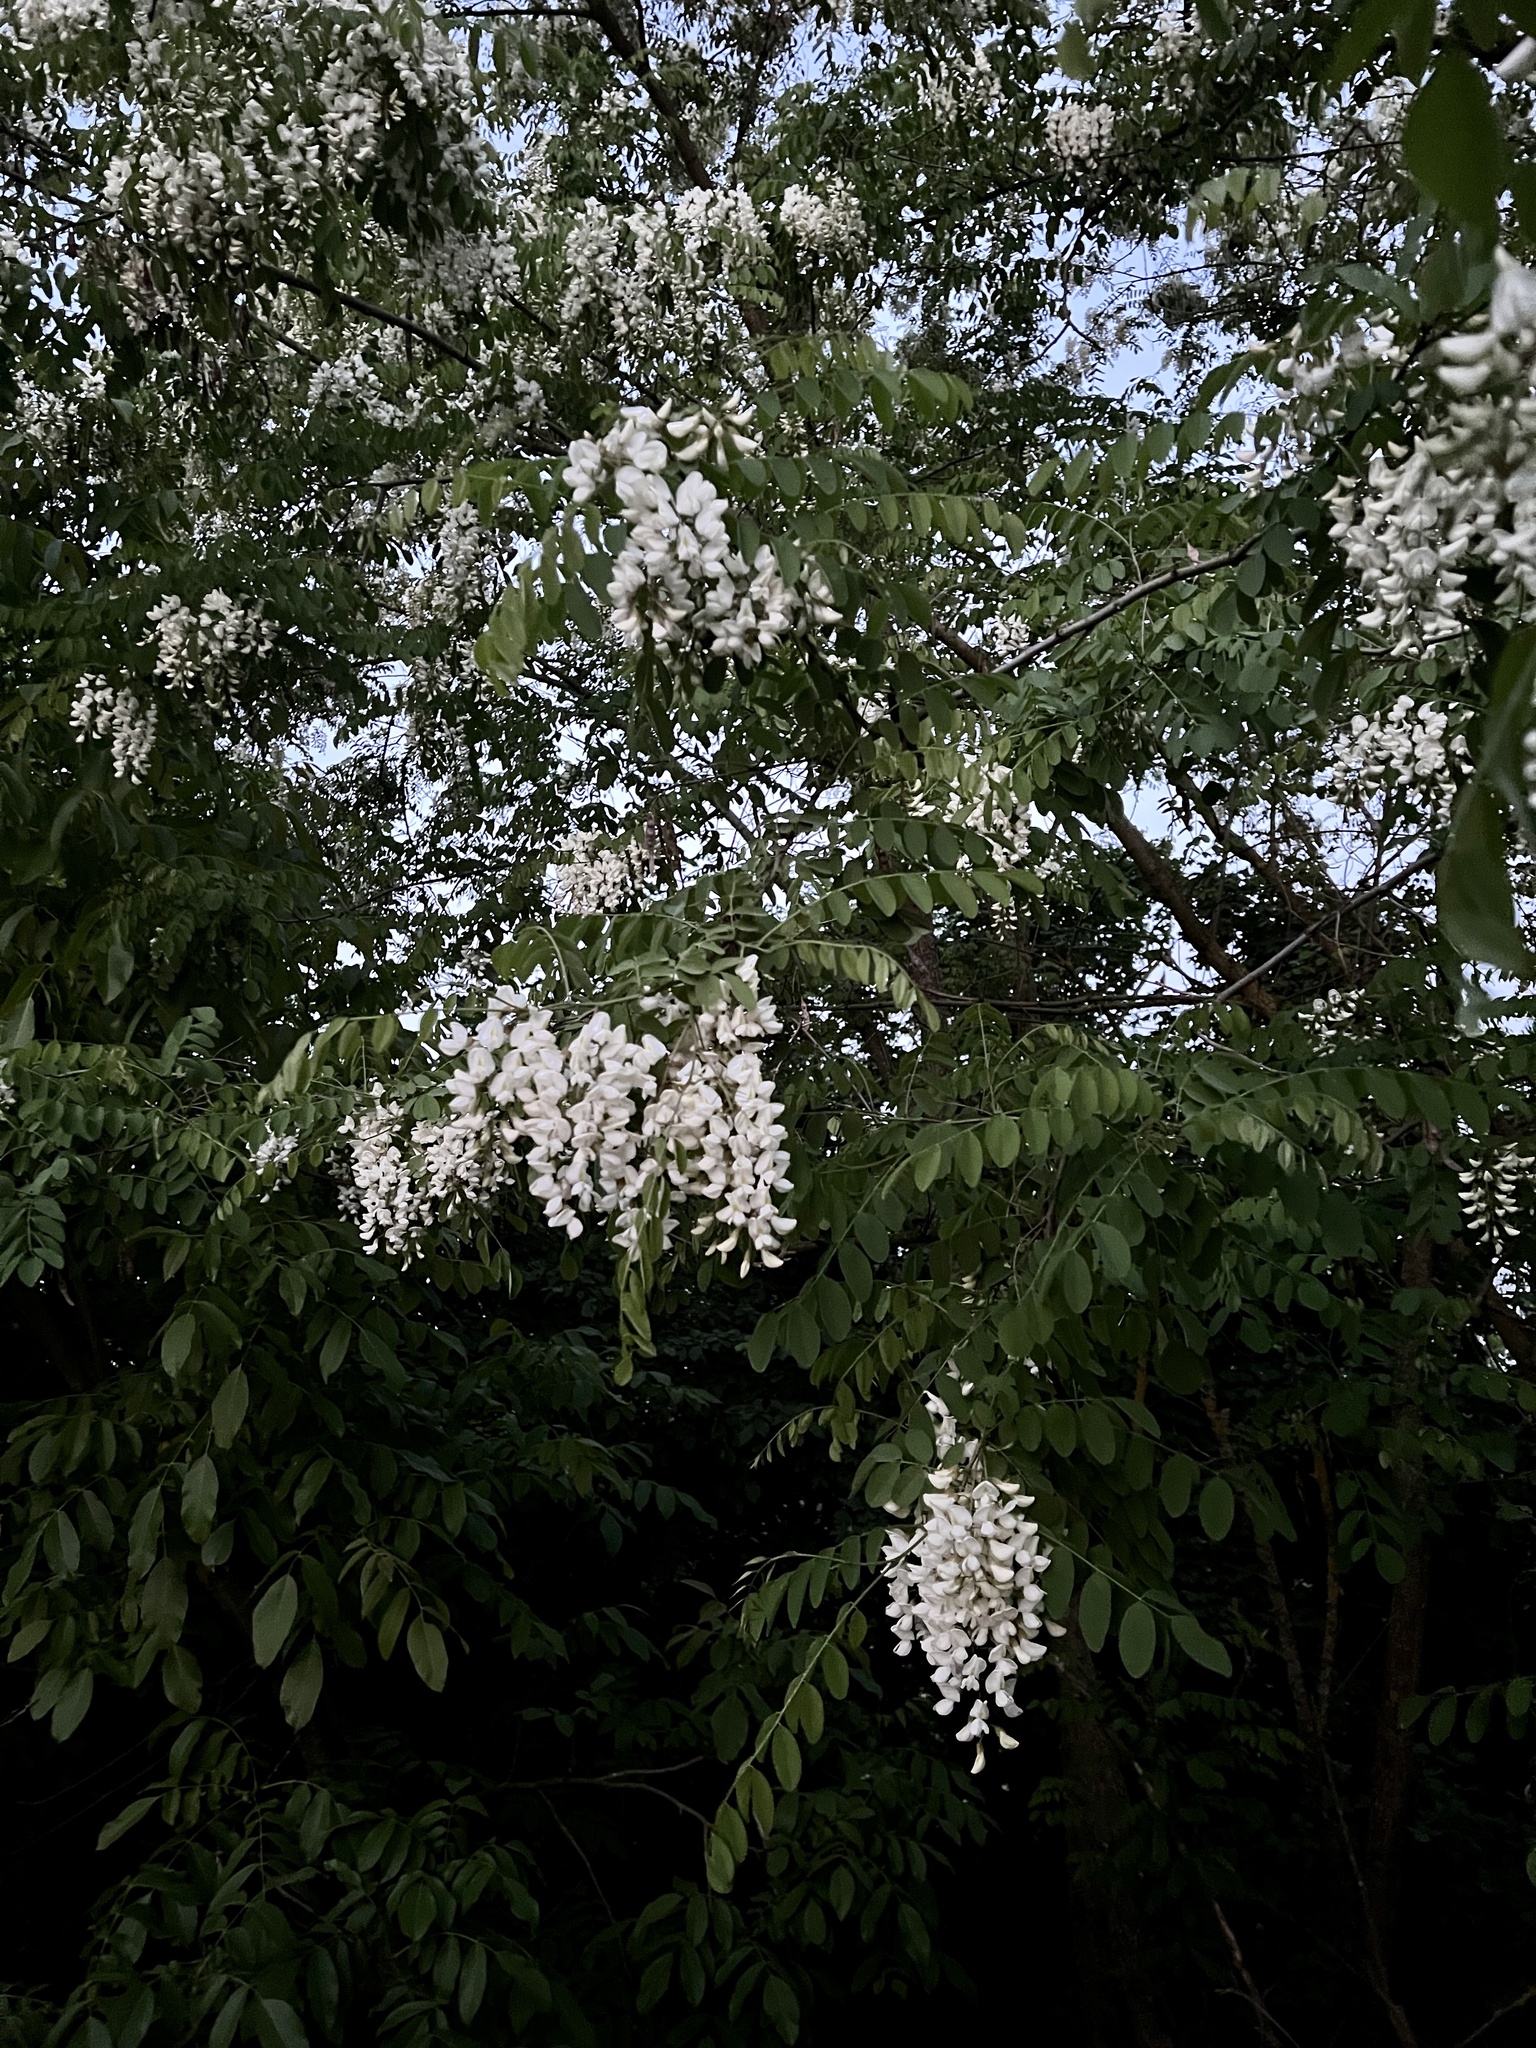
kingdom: Plantae
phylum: Tracheophyta
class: Magnoliopsida
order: Fabales
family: Fabaceae
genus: Robinia
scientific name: Robinia pseudoacacia
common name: Black locust
